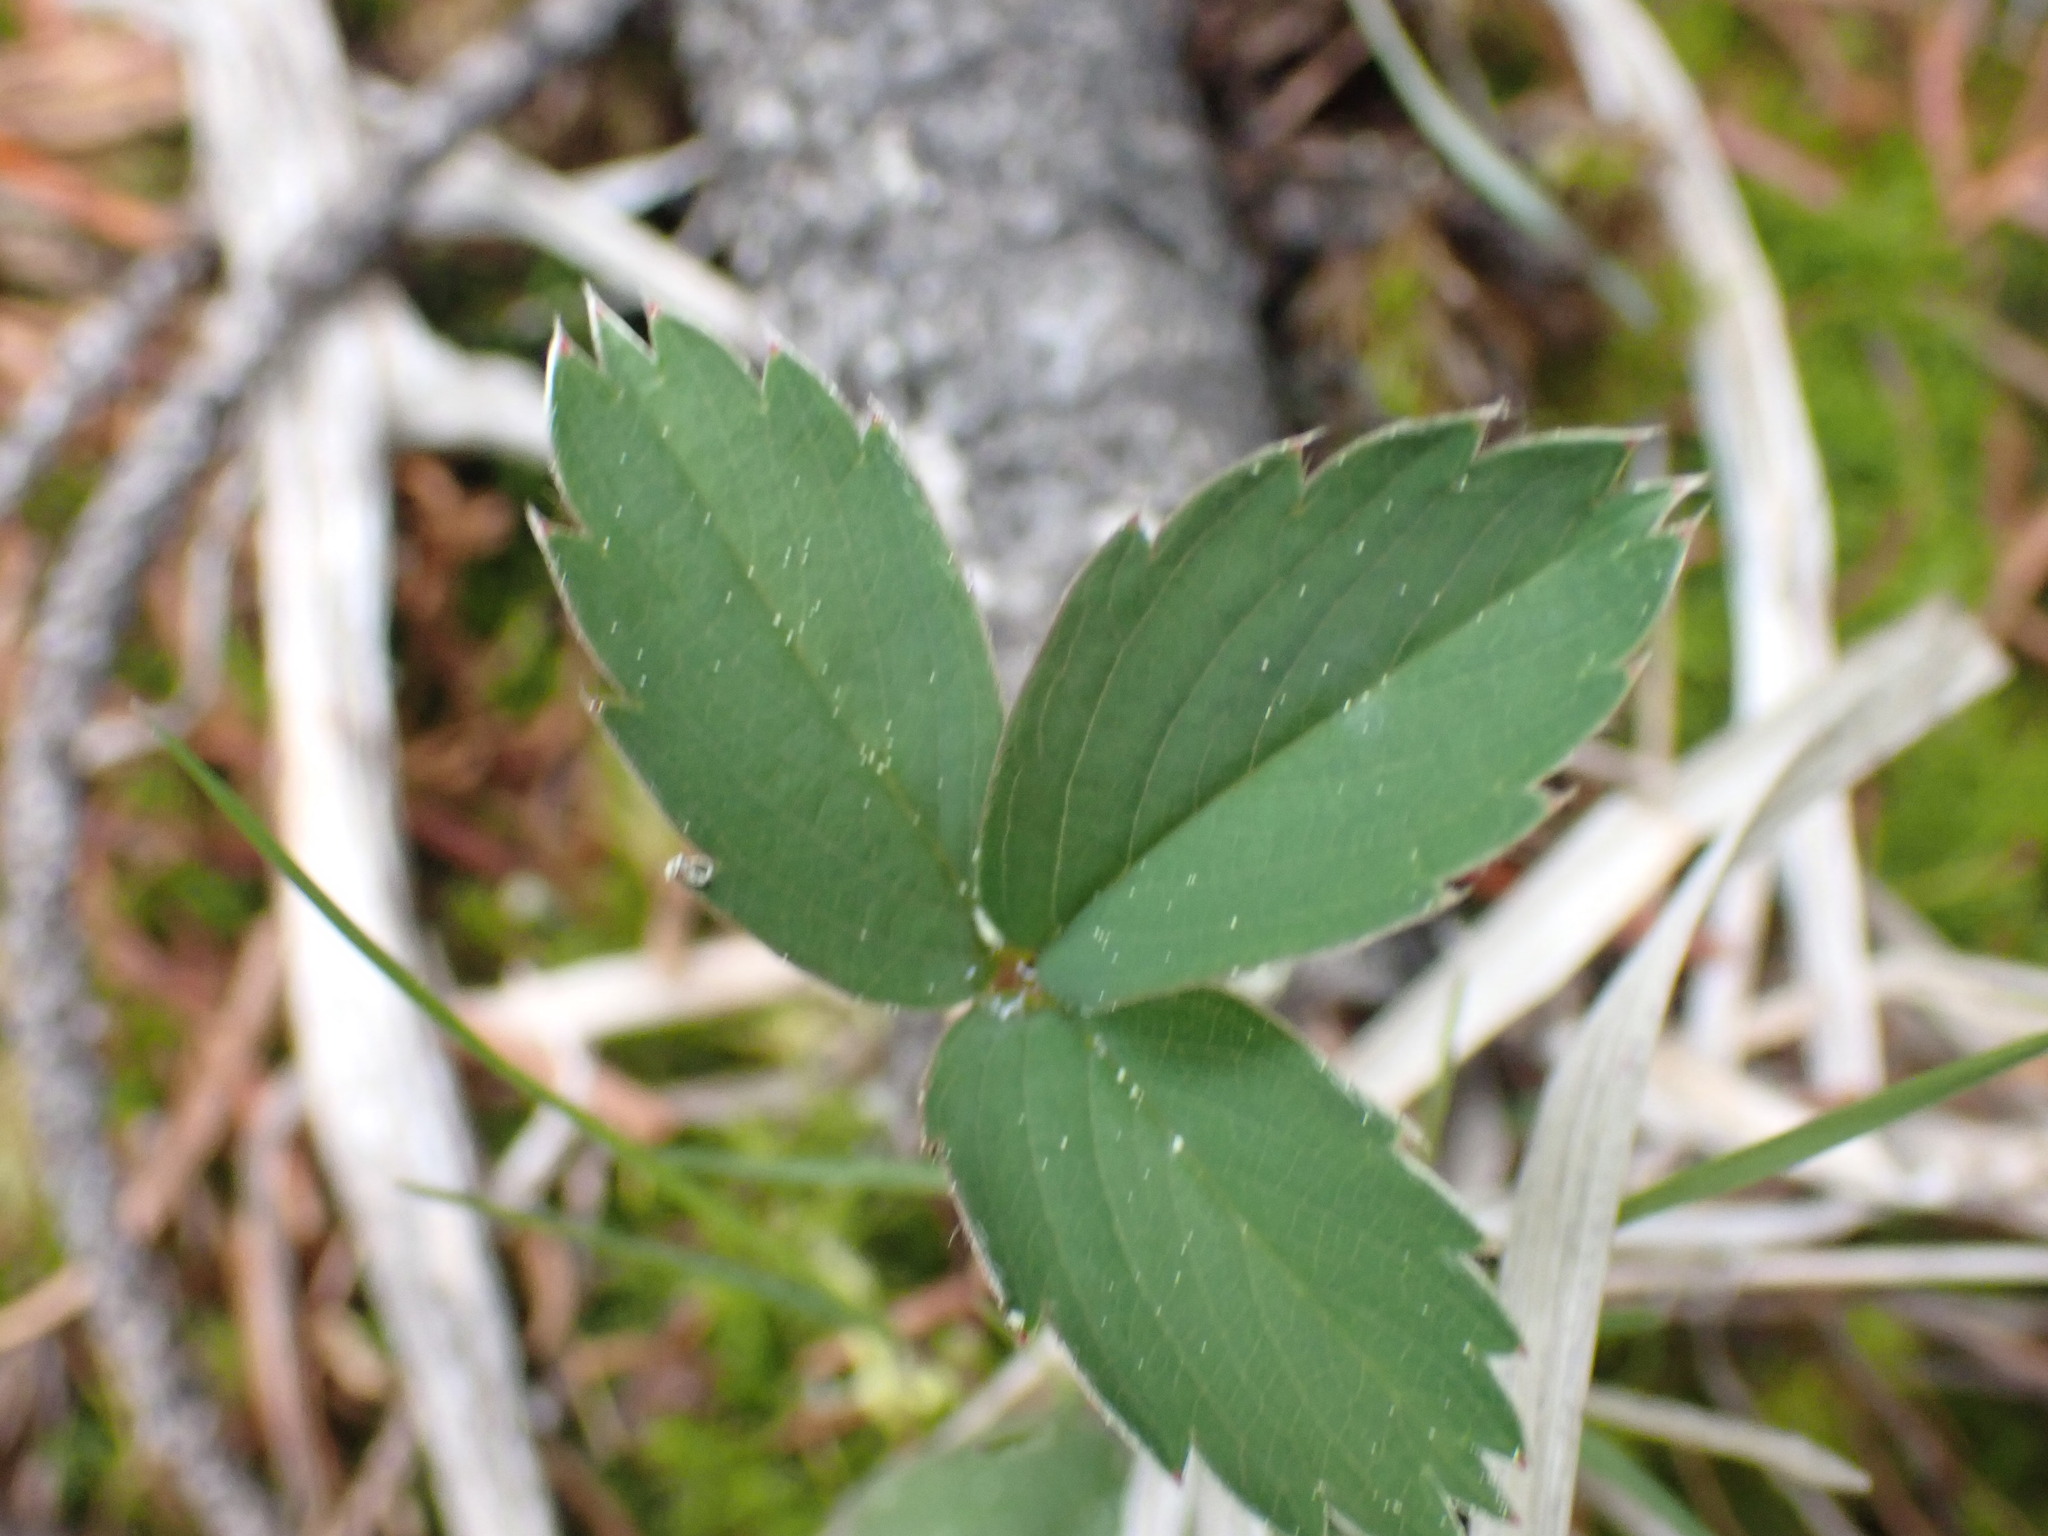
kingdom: Plantae
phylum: Tracheophyta
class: Magnoliopsida
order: Rosales
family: Rosaceae
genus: Fragaria
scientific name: Fragaria virginiana
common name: Thickleaved wild strawberry
